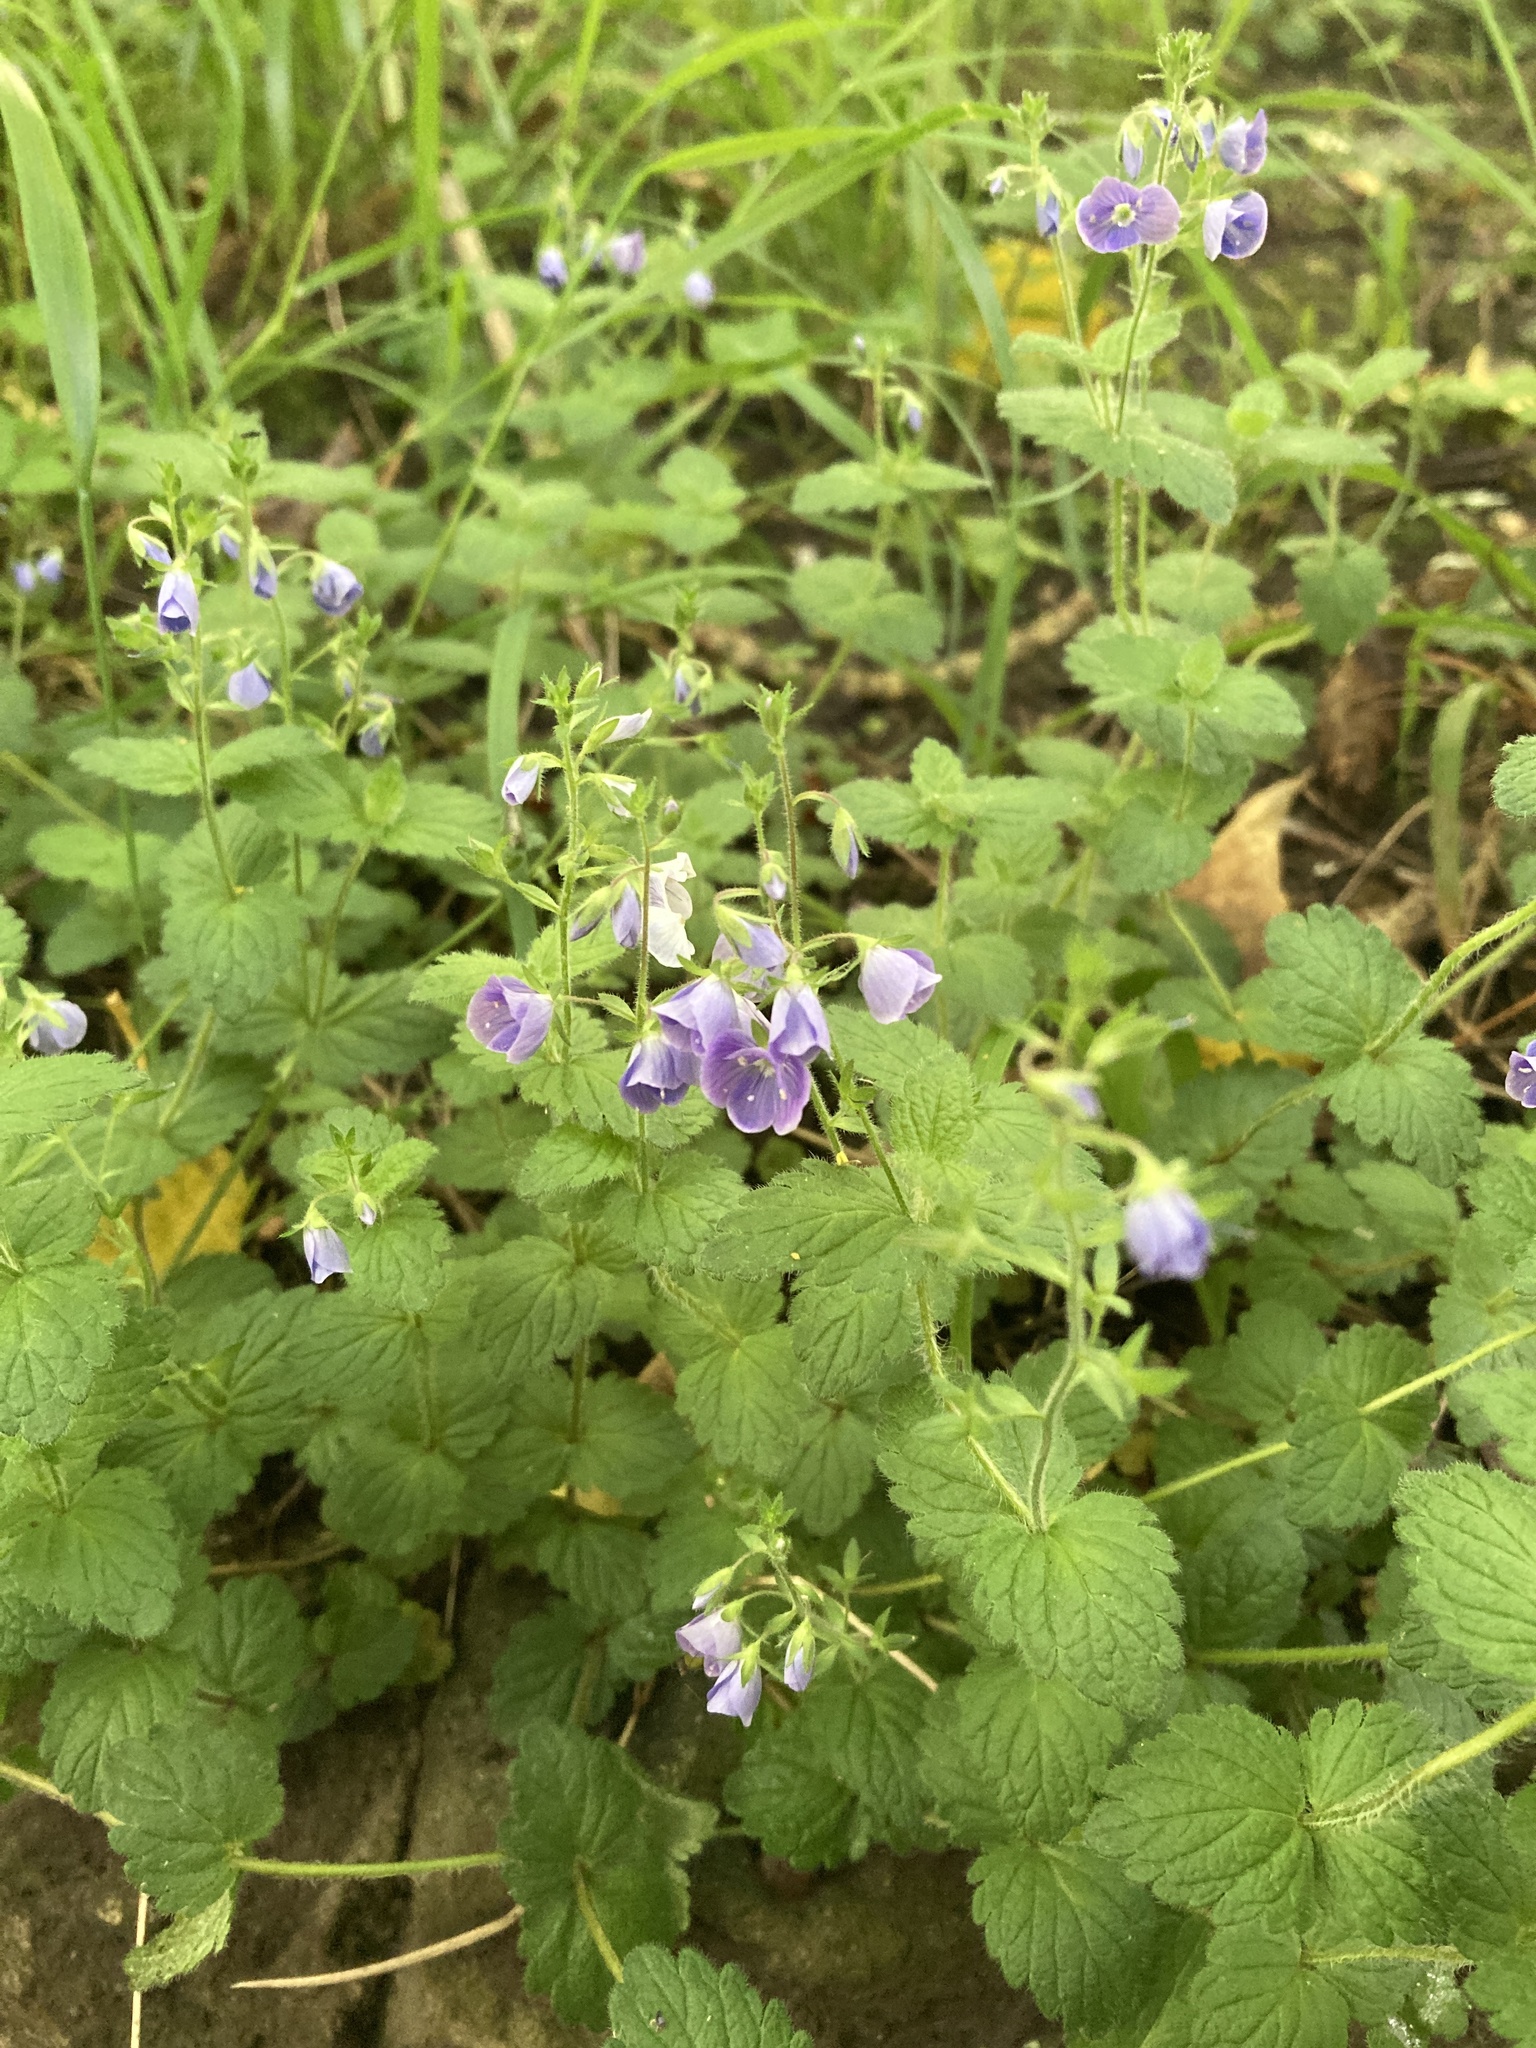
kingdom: Plantae
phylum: Tracheophyta
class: Magnoliopsida
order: Lamiales
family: Plantaginaceae
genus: Veronica
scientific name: Veronica chamaedrys
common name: Germander speedwell
